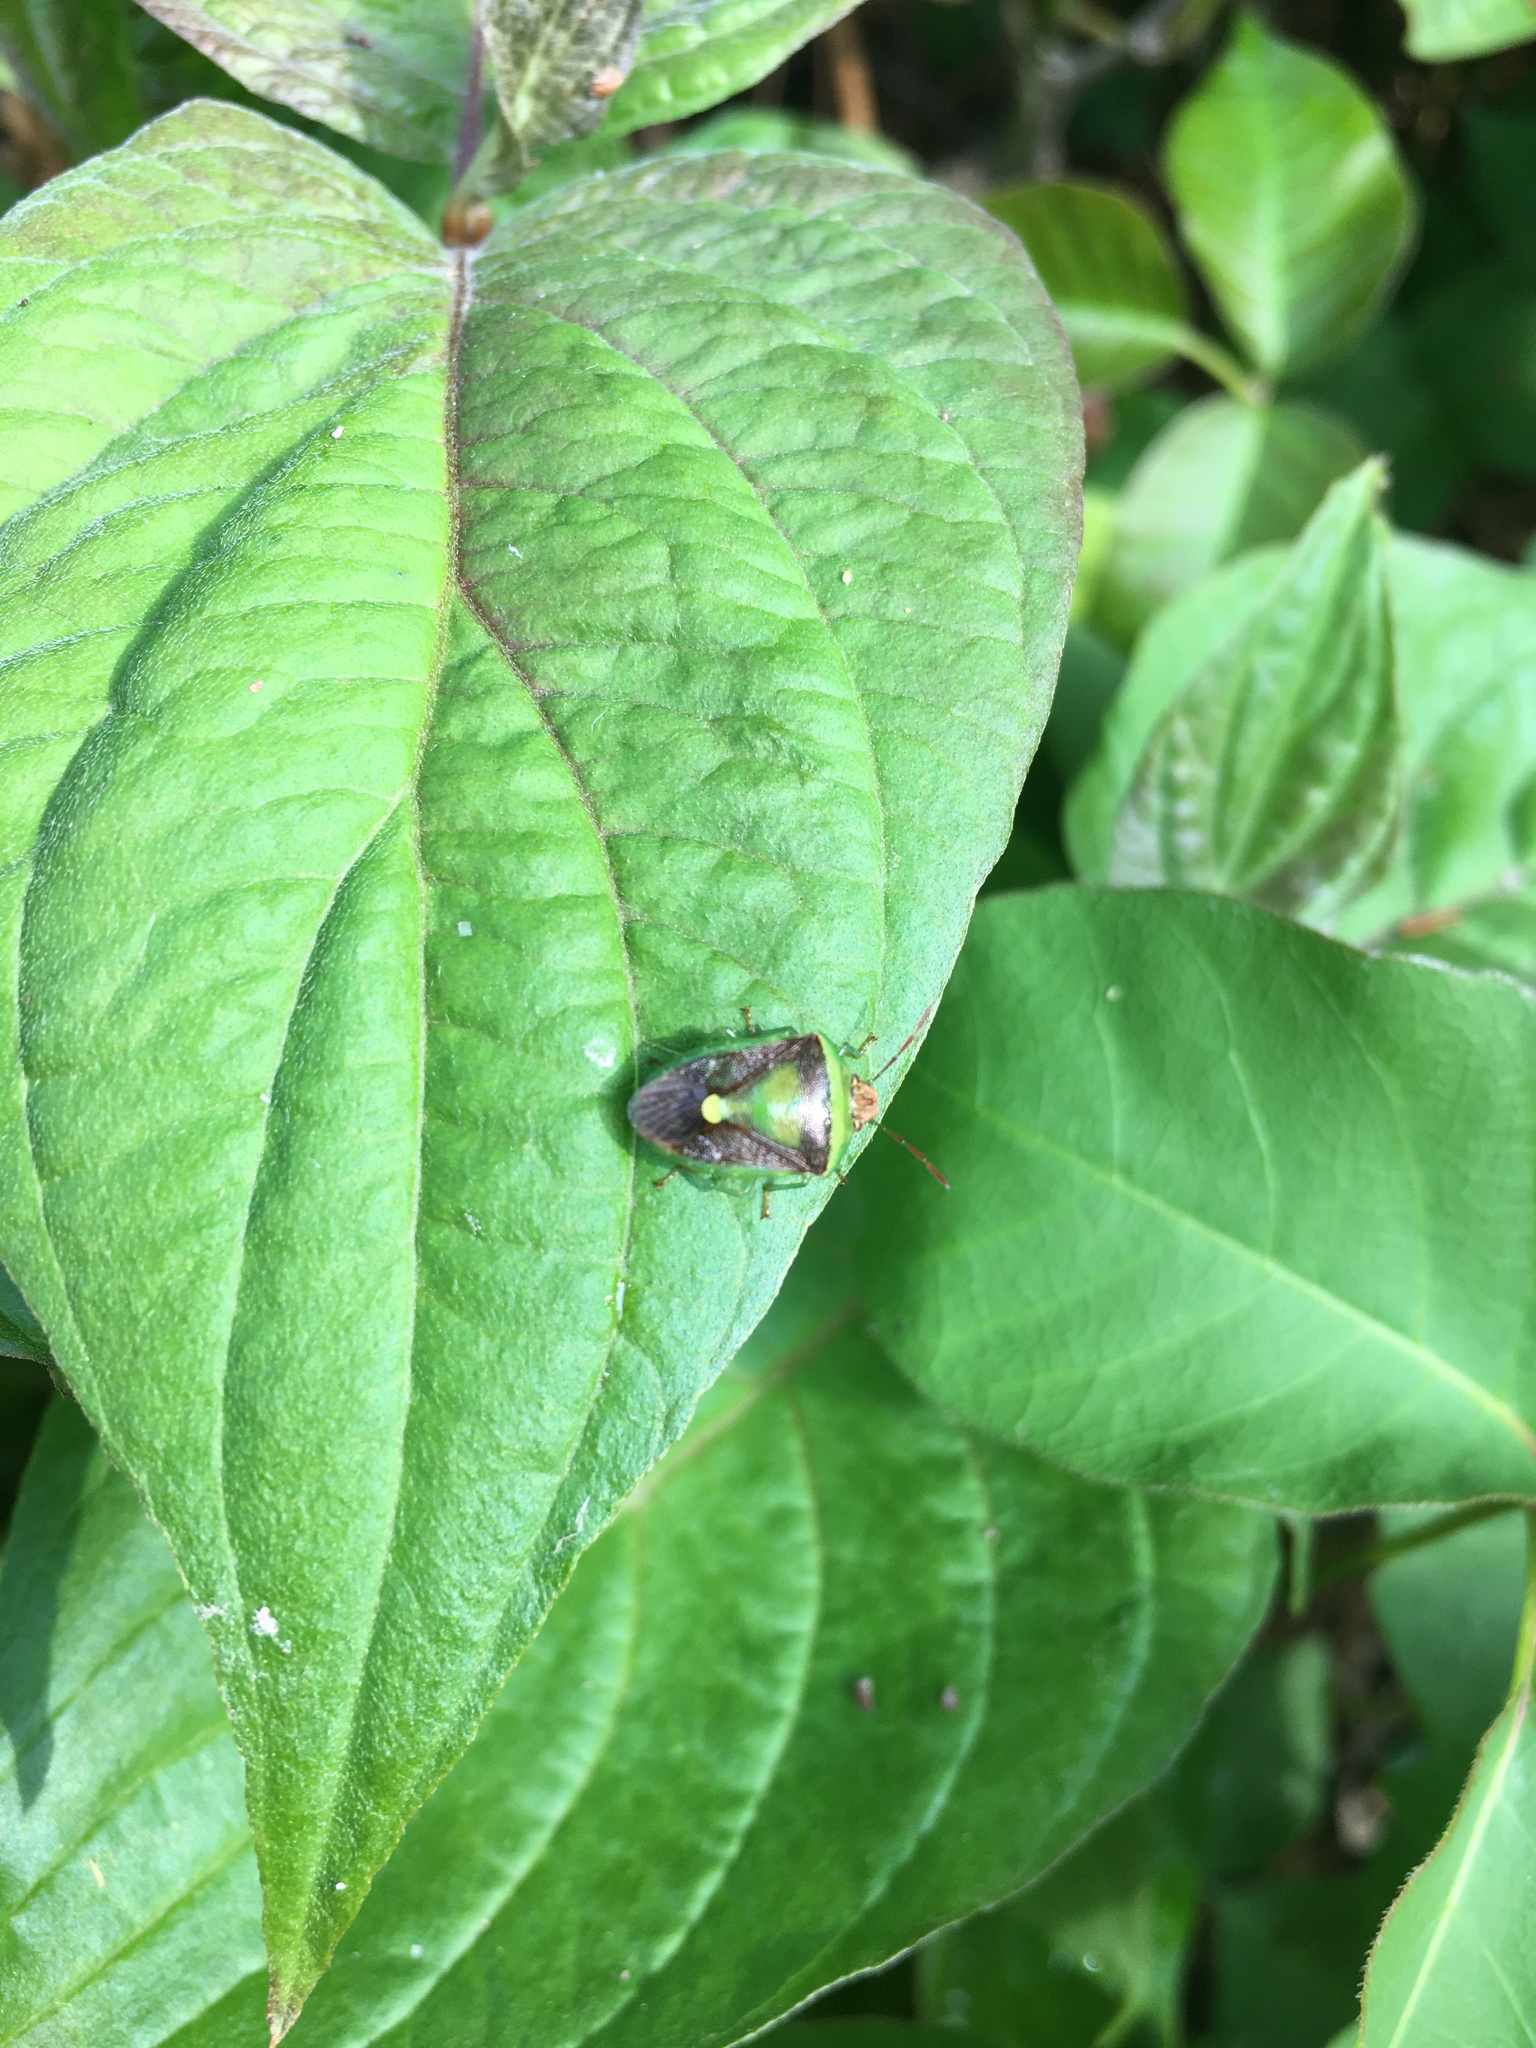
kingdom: Animalia
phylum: Arthropoda
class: Insecta
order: Hemiptera
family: Pentatomidae
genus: Banasa
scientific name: Banasa dimidiata
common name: Green burgundy stink bug
